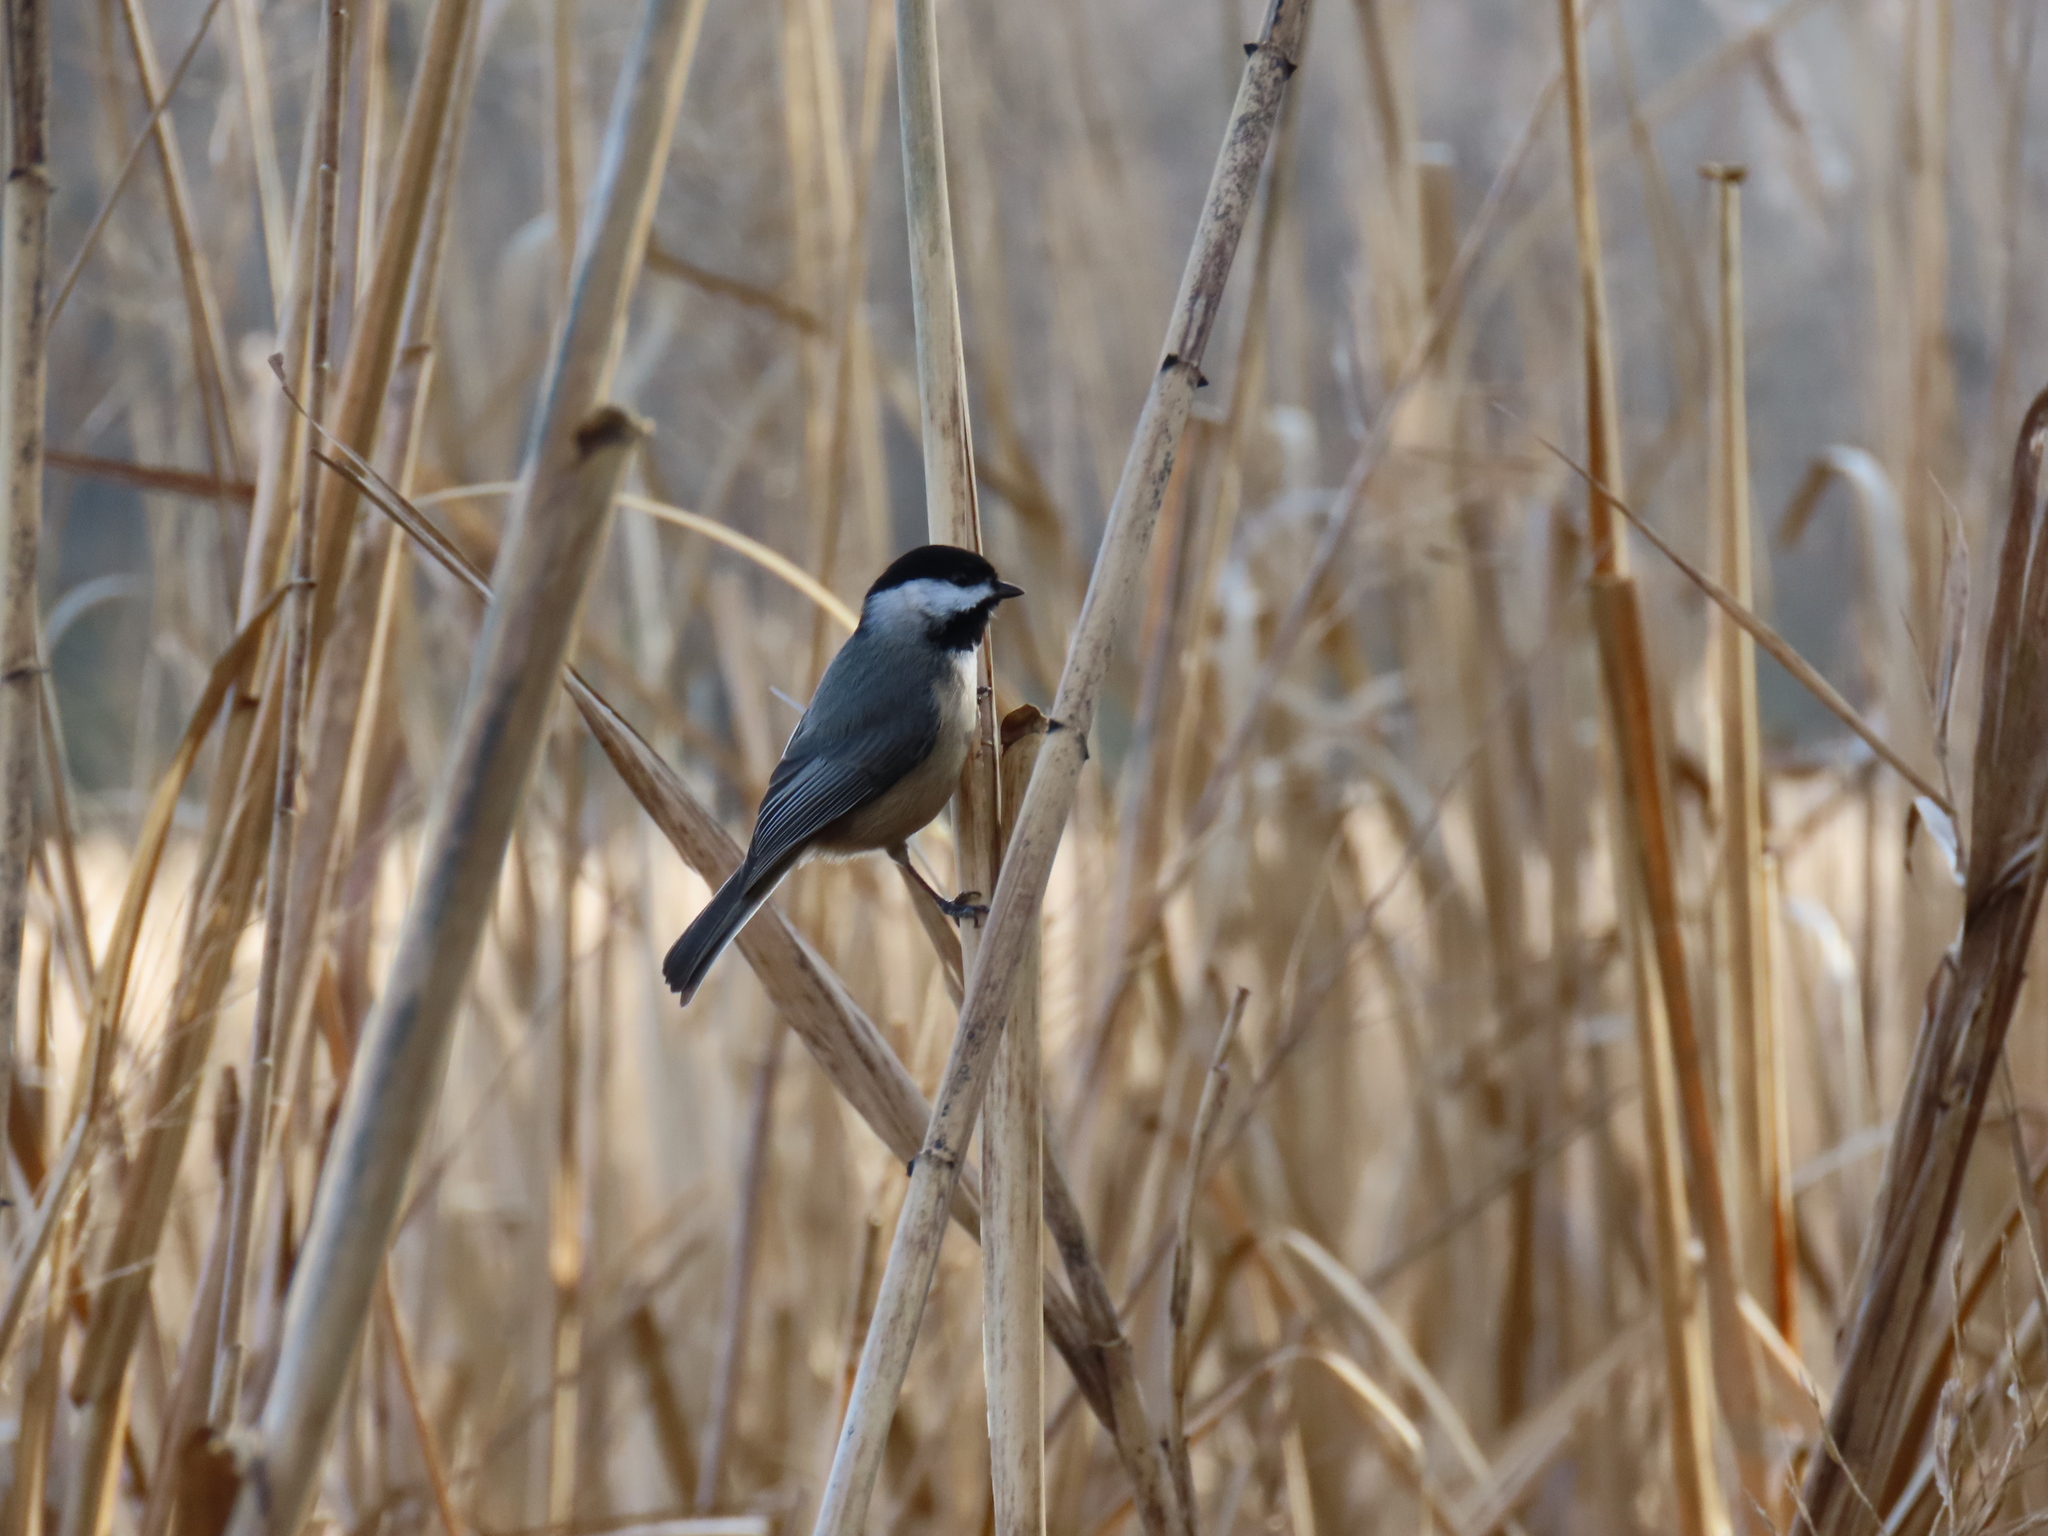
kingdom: Animalia
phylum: Chordata
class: Aves
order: Passeriformes
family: Paridae
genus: Poecile
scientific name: Poecile carolinensis
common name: Carolina chickadee
